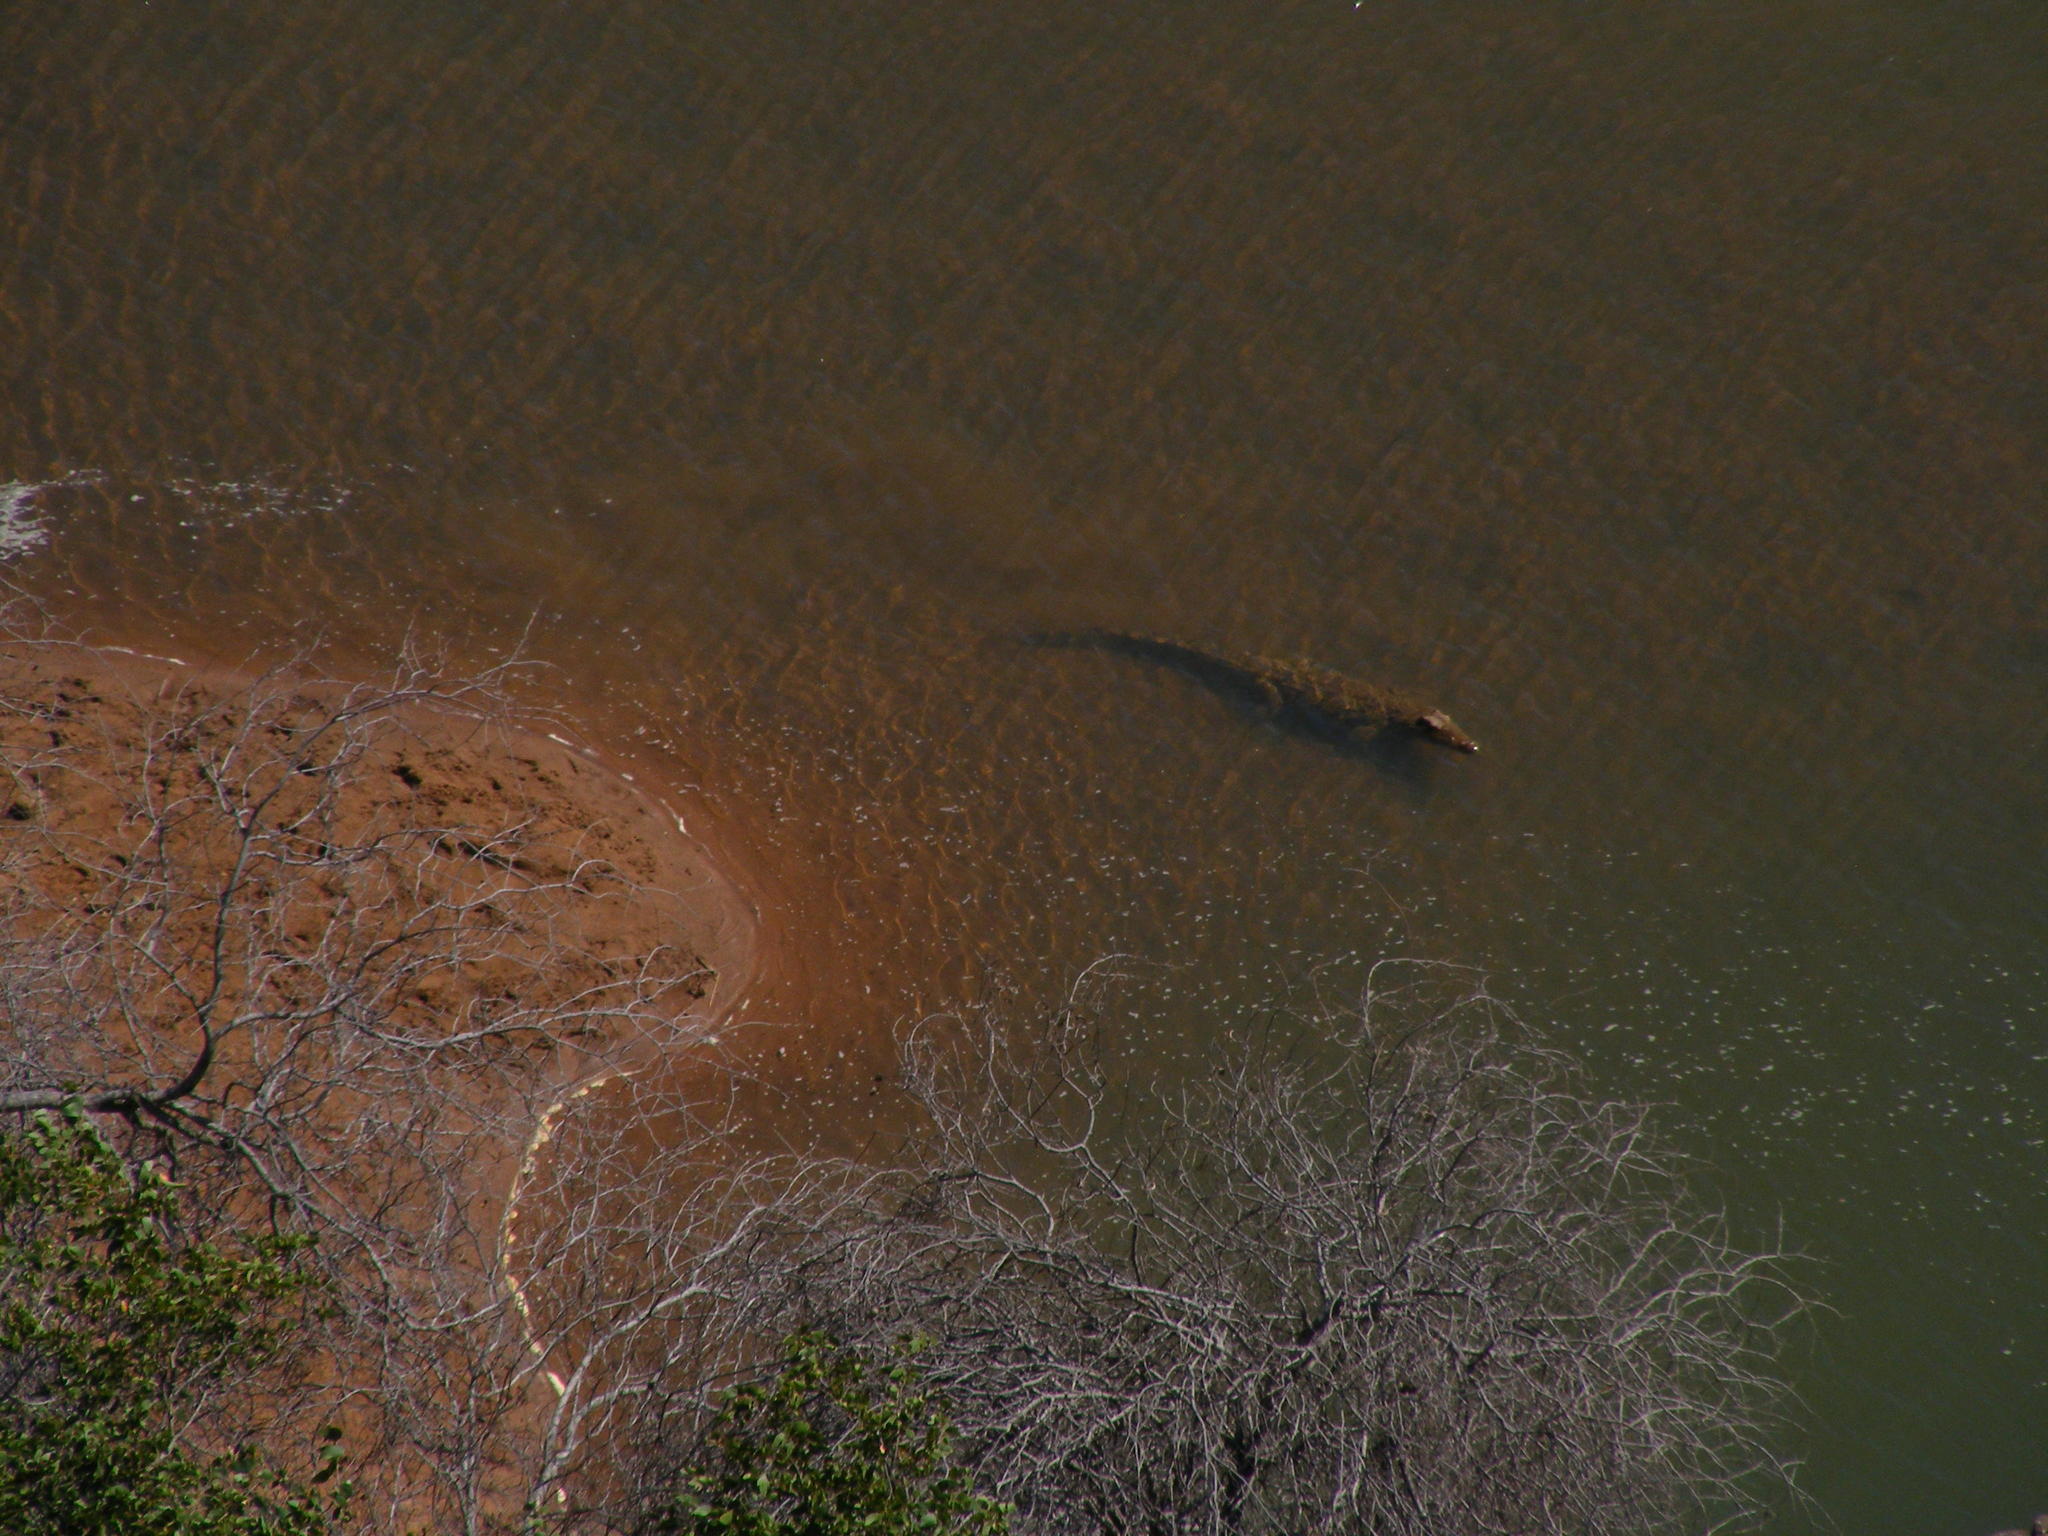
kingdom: Animalia
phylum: Chordata
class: Crocodylia
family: Crocodylidae
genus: Crocodylus
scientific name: Crocodylus niloticus
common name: Nile crocodile
